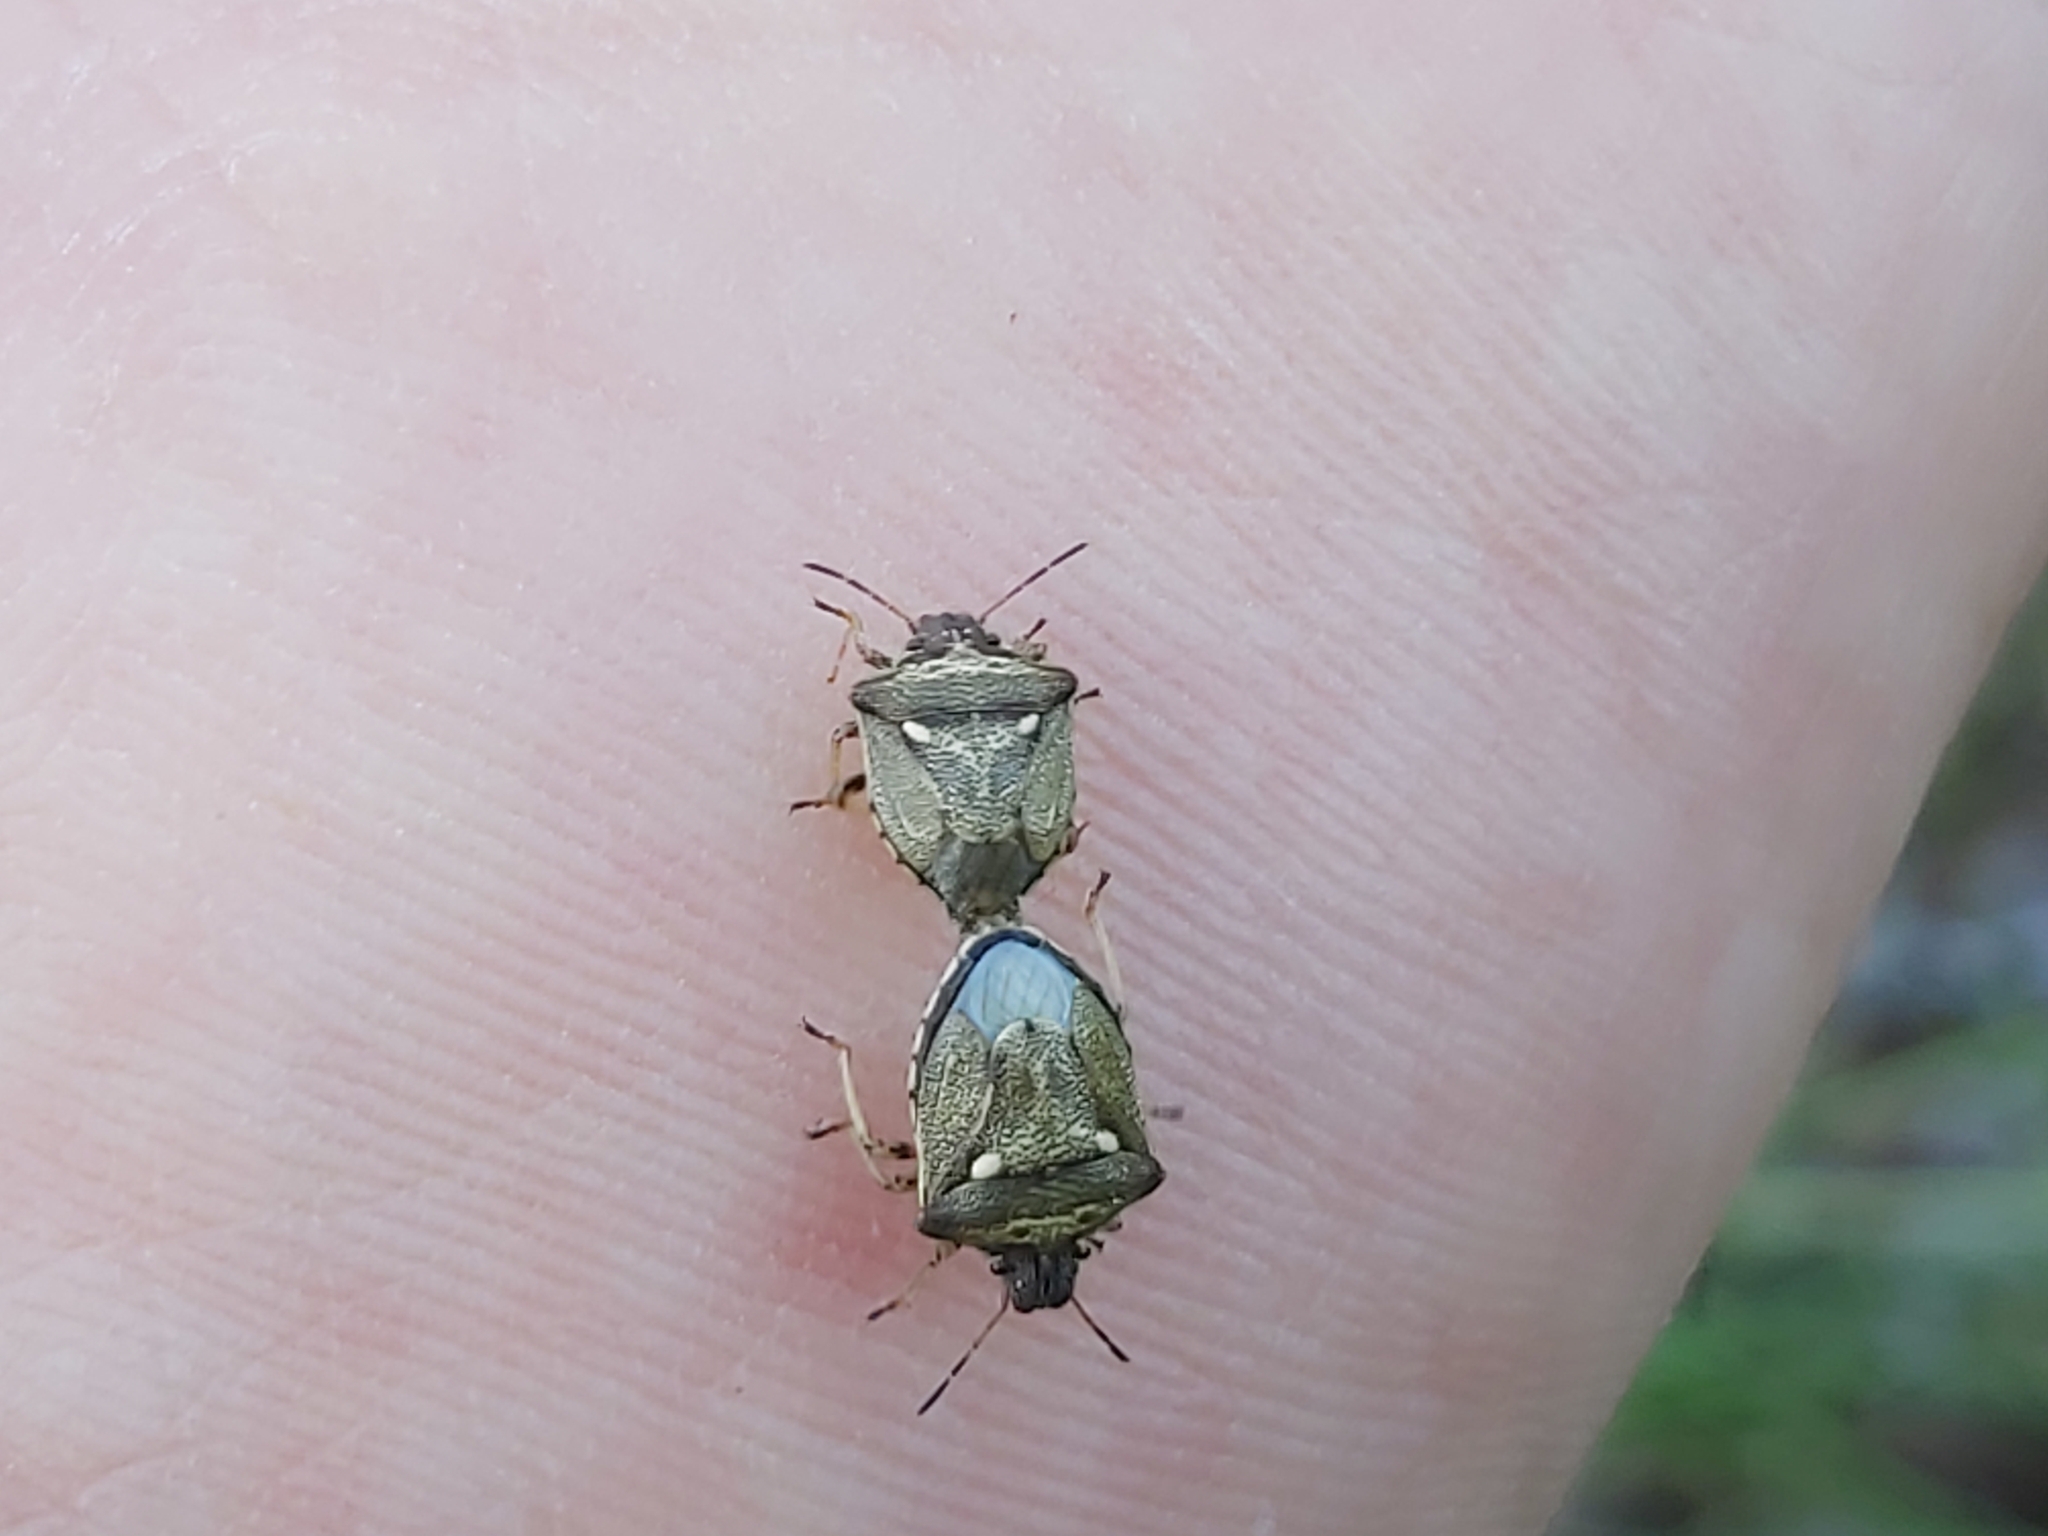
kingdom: Animalia
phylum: Arthropoda
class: Insecta
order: Hemiptera
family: Pentatomidae
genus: Eysarcoris
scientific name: Eysarcoris aeneus
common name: New forest shieldbug
